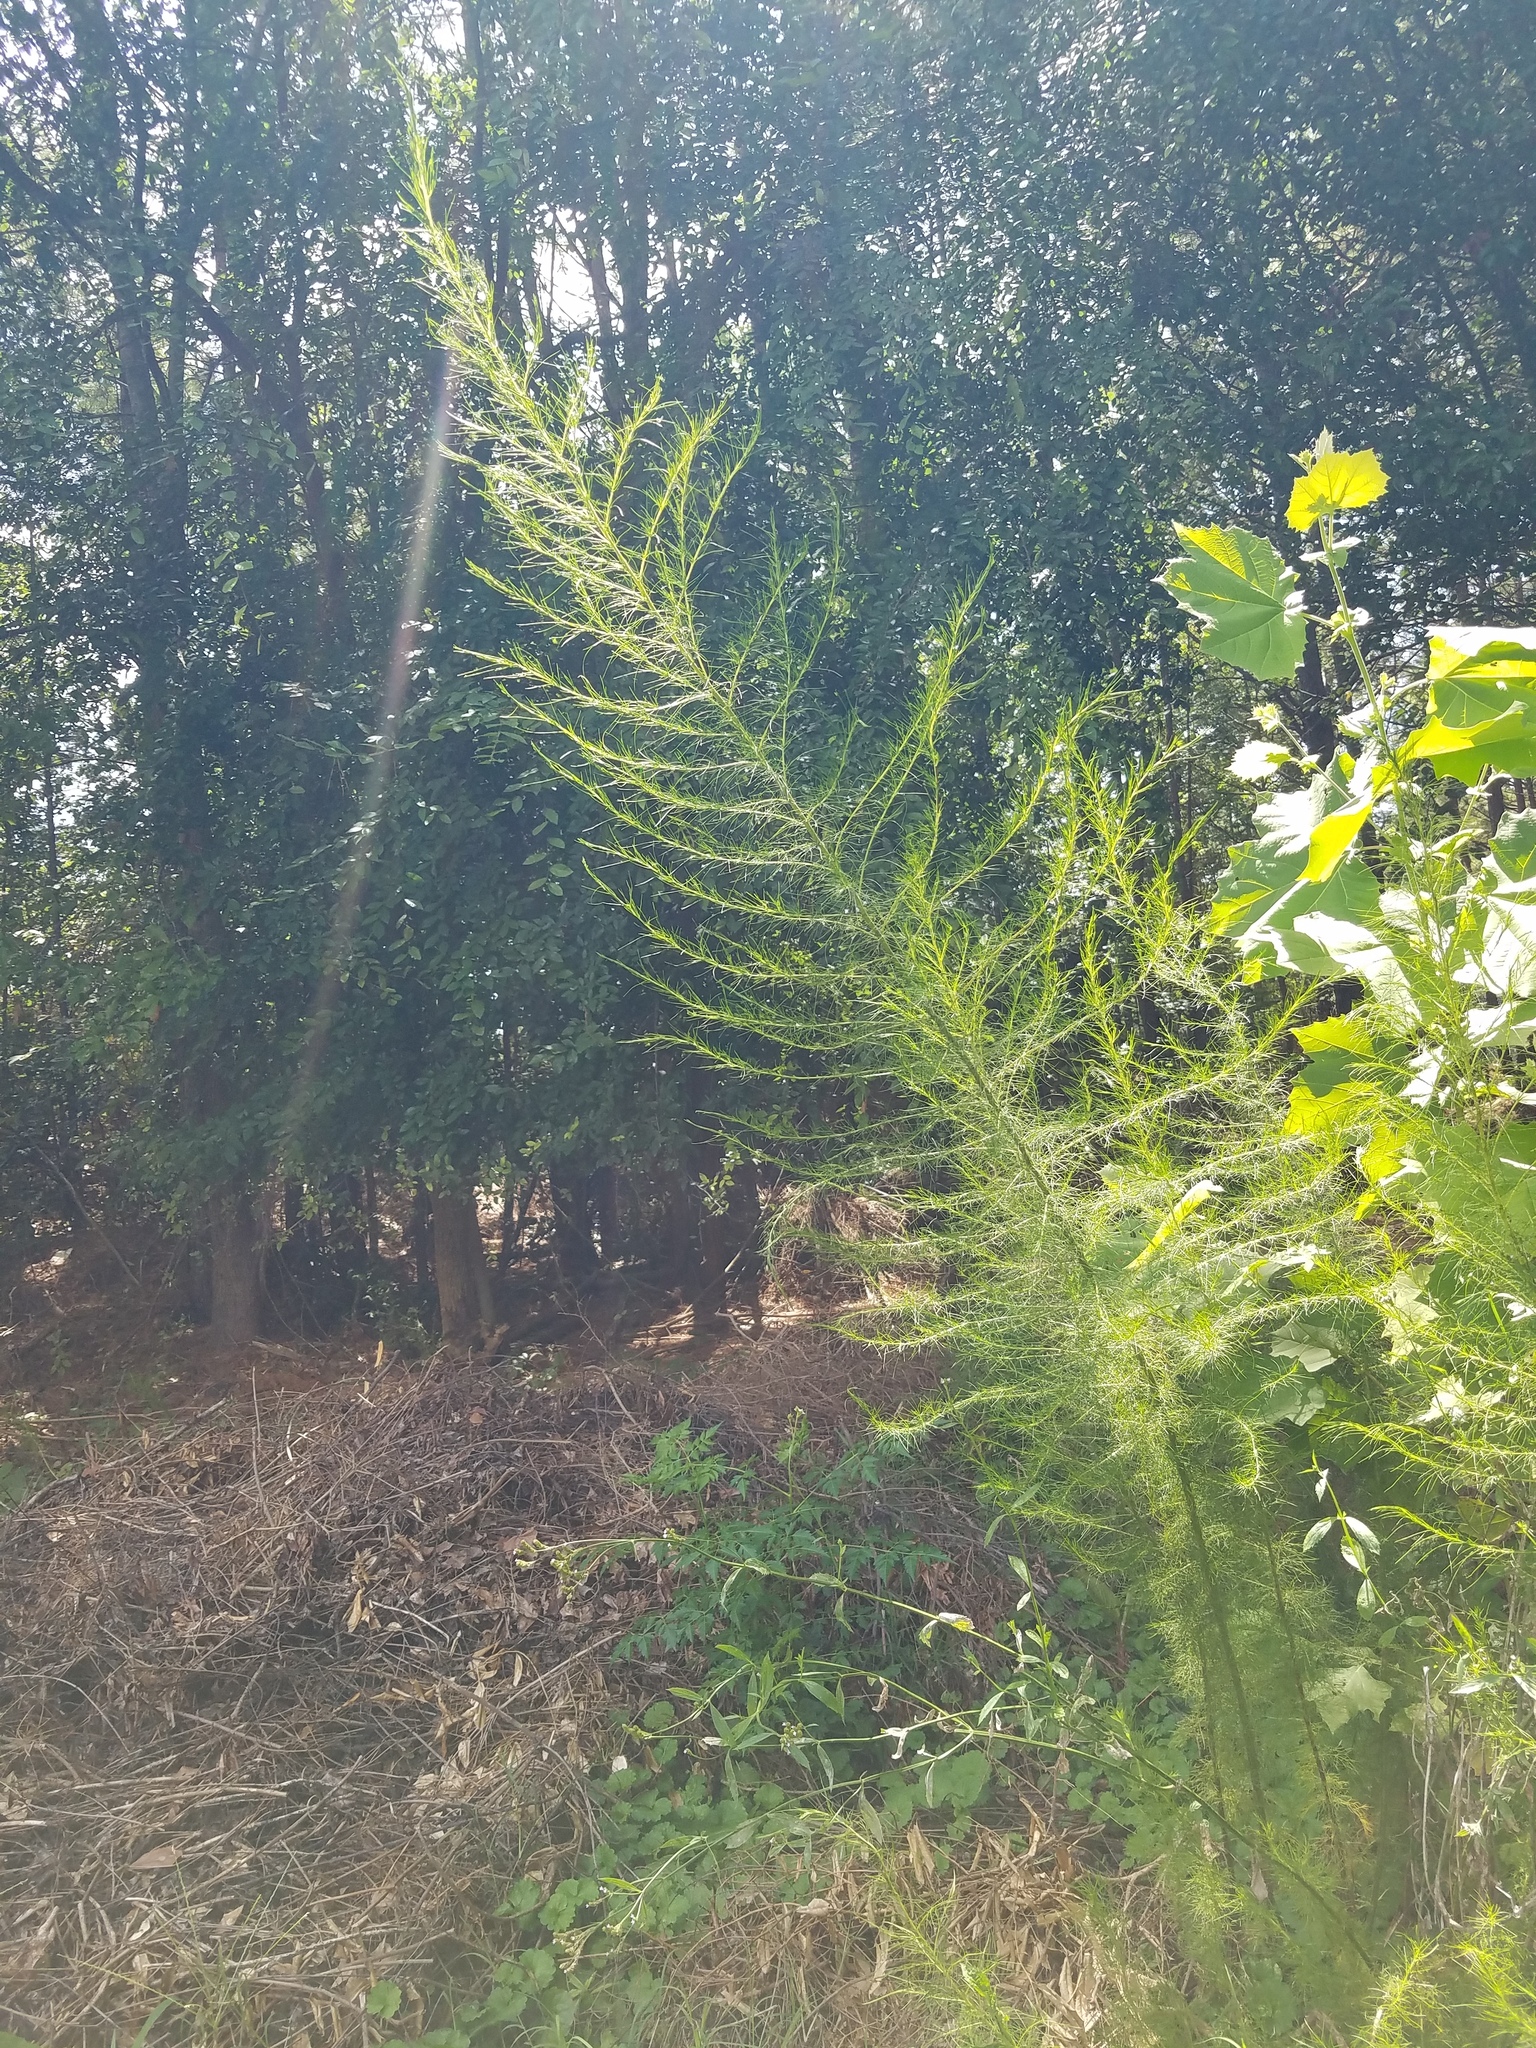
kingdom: Plantae
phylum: Tracheophyta
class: Magnoliopsida
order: Asterales
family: Asteraceae
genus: Eupatorium
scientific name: Eupatorium capillifolium
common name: Dog-fennel
